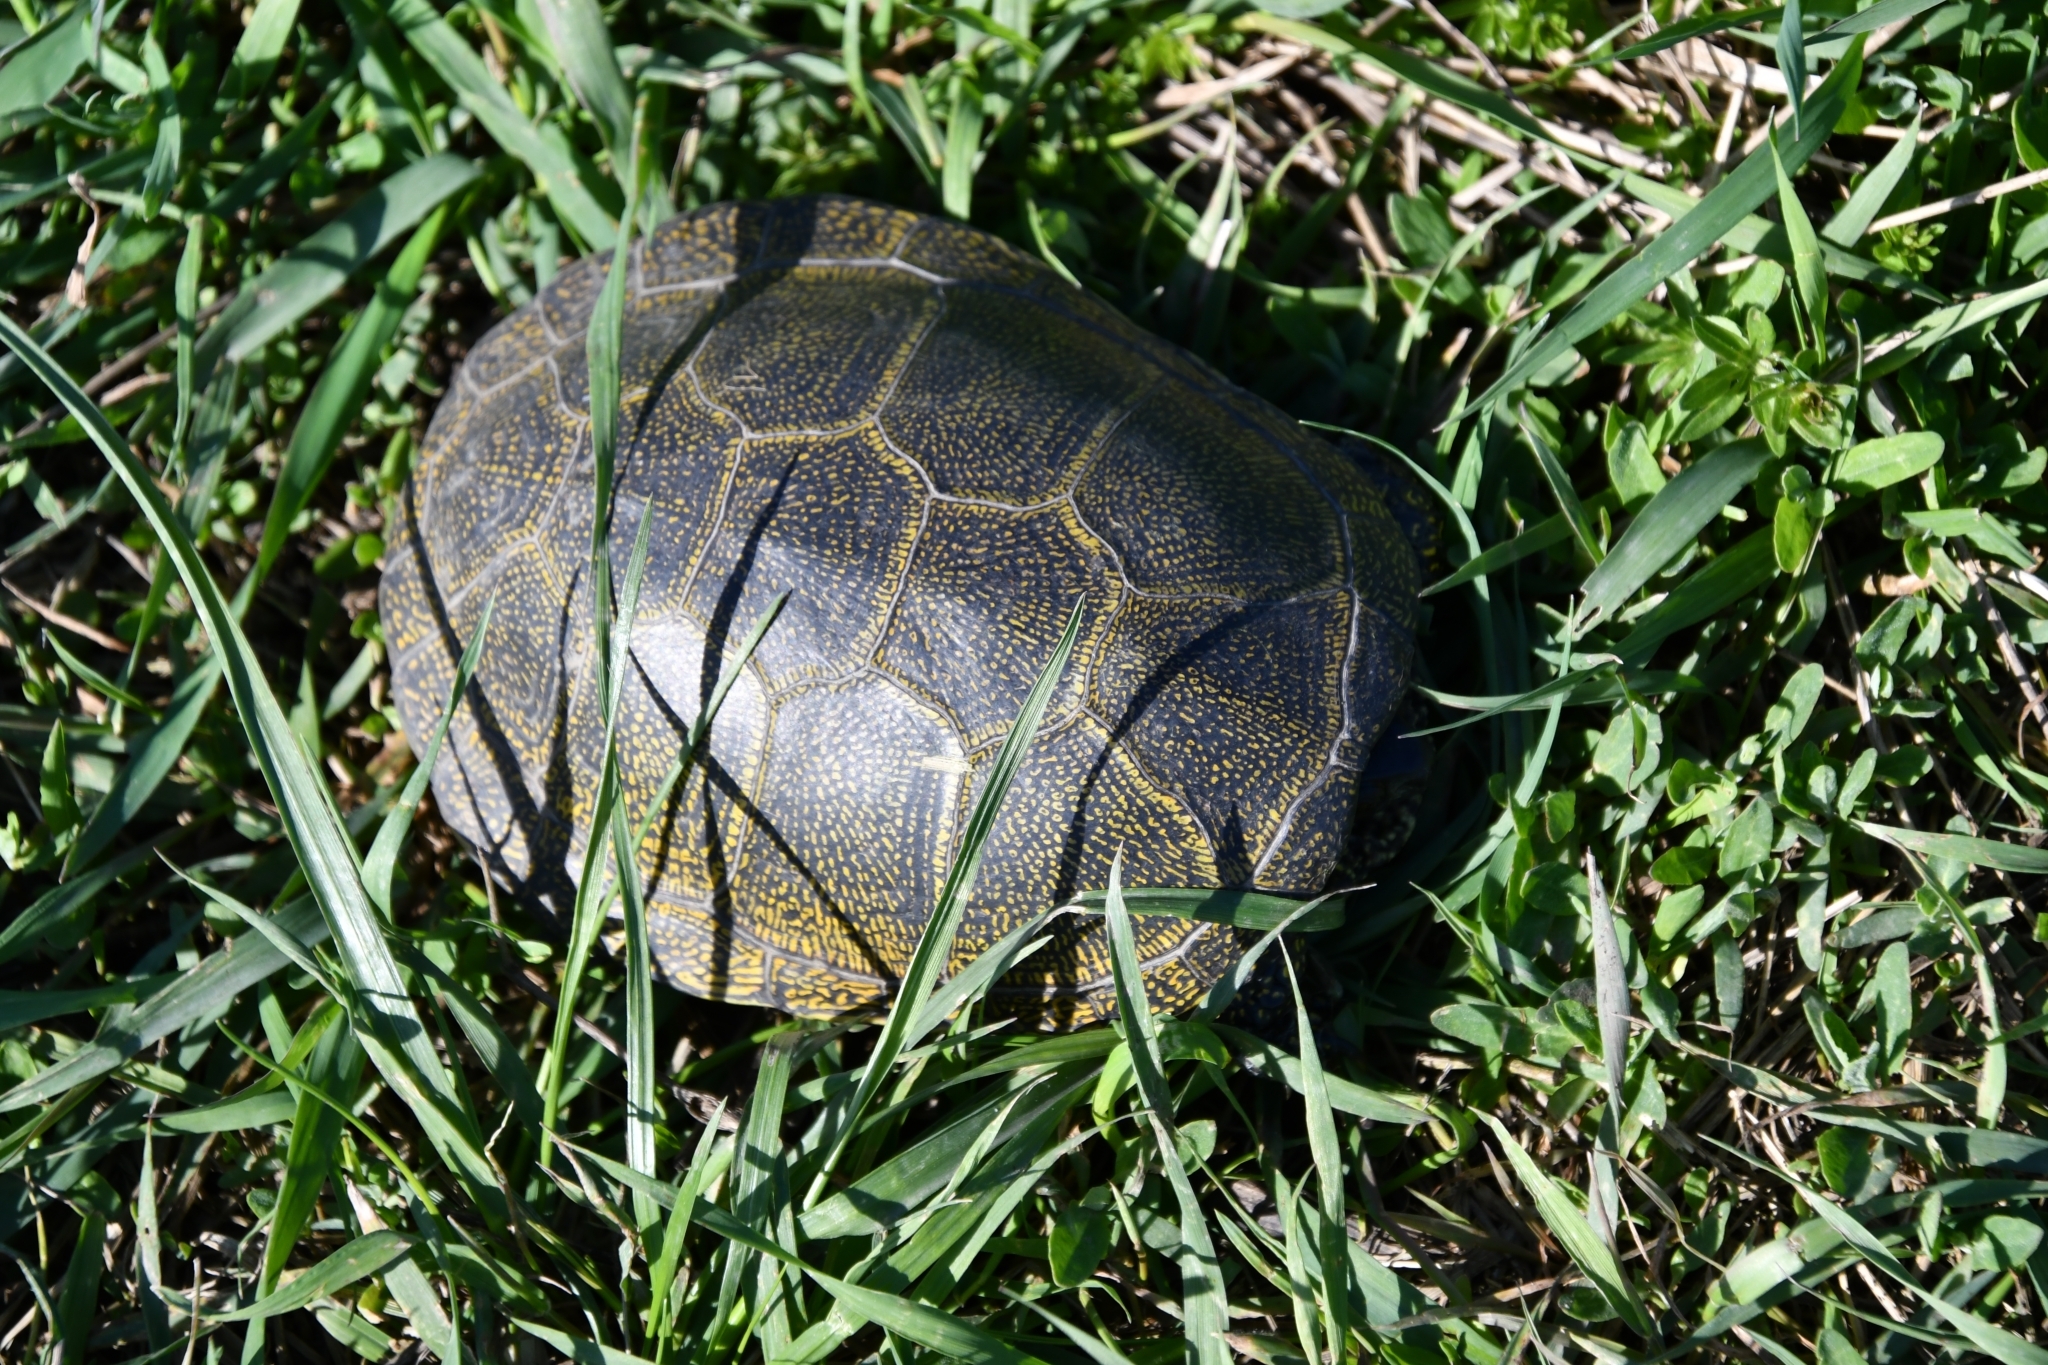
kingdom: Animalia
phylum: Chordata
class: Testudines
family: Emydidae
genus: Emys
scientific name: Emys orbicularis
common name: European pond turtle
